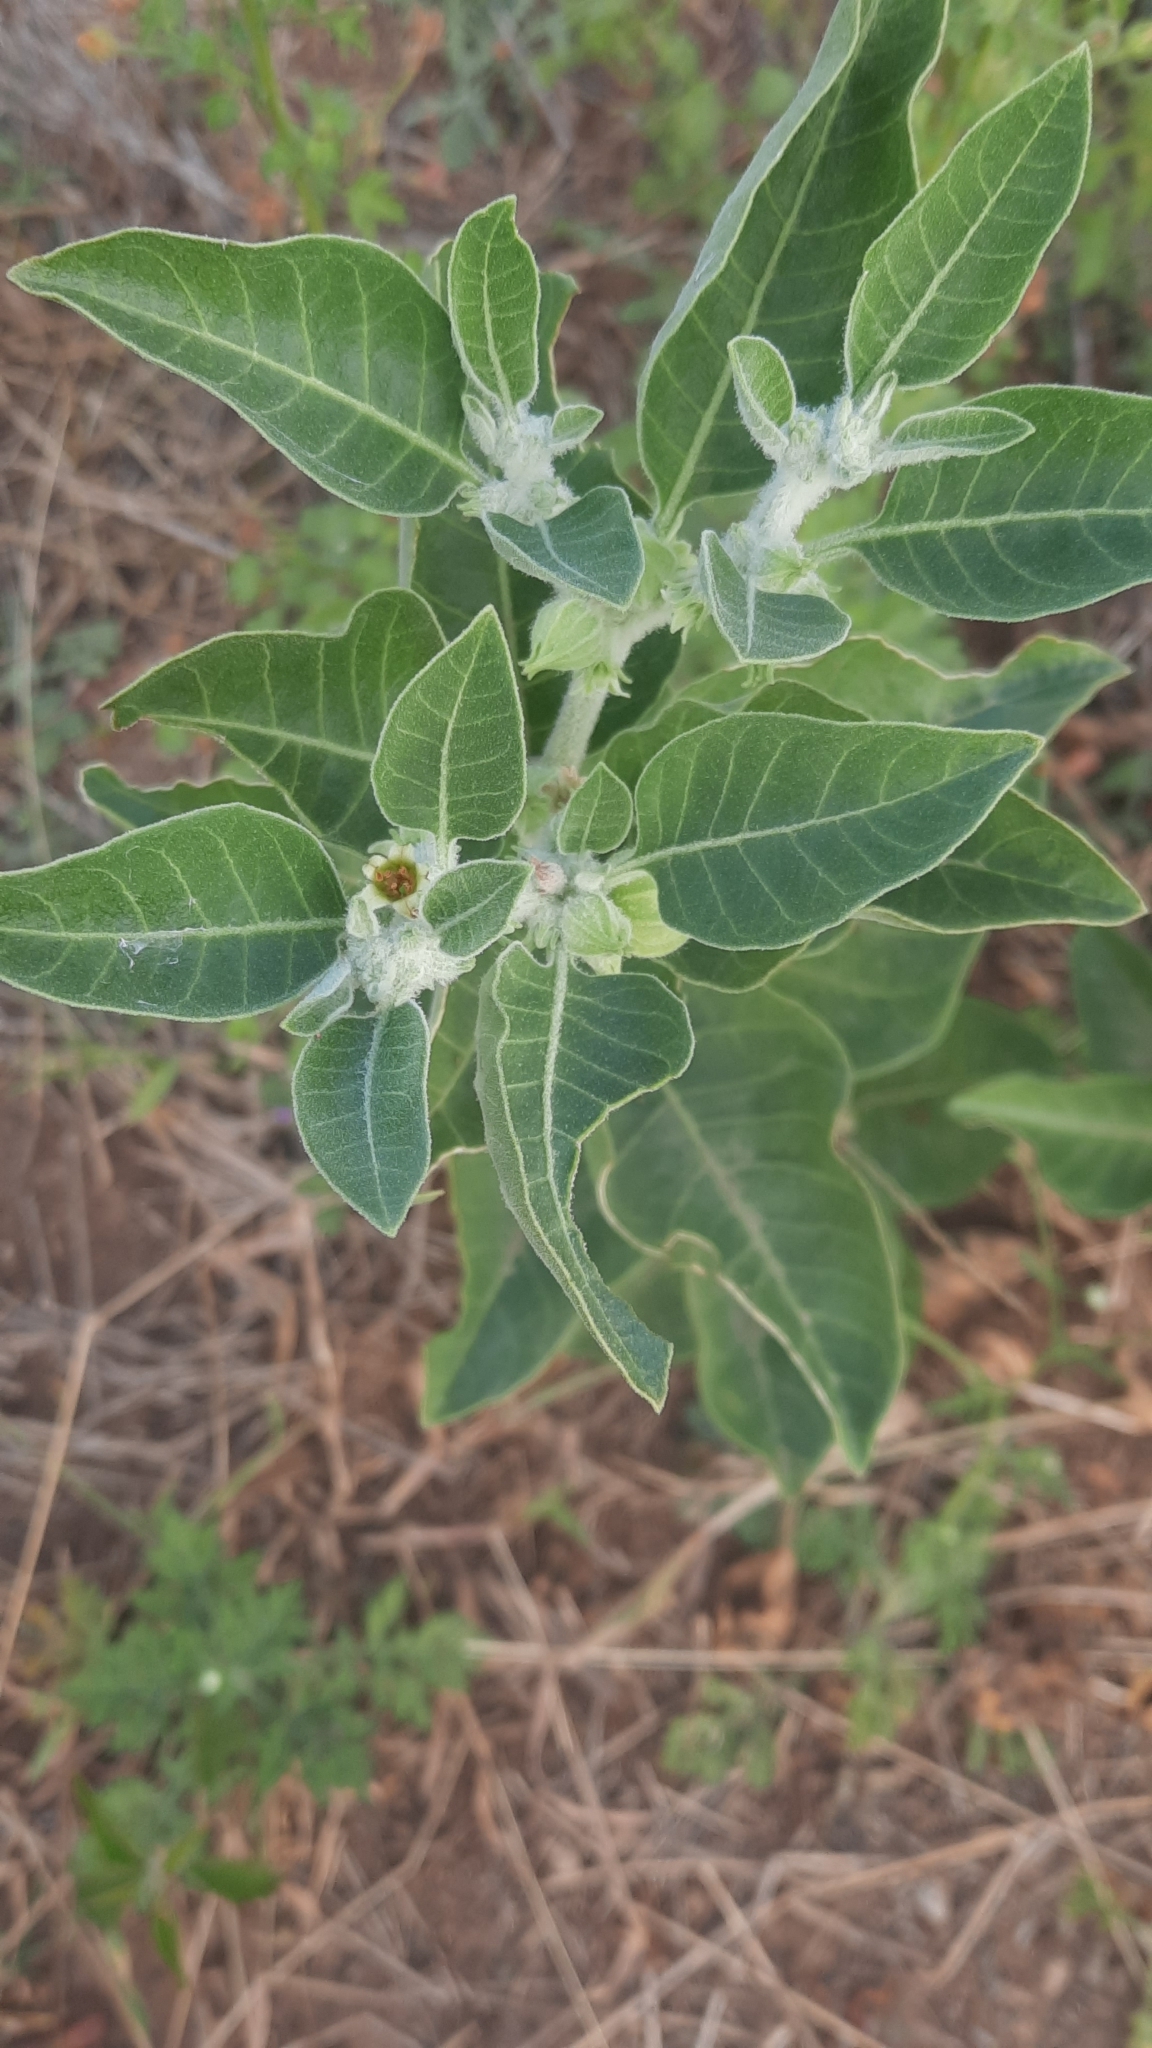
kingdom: Plantae
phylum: Tracheophyta
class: Magnoliopsida
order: Solanales
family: Solanaceae
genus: Withania
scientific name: Withania somnifera
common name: Winter-cherry
